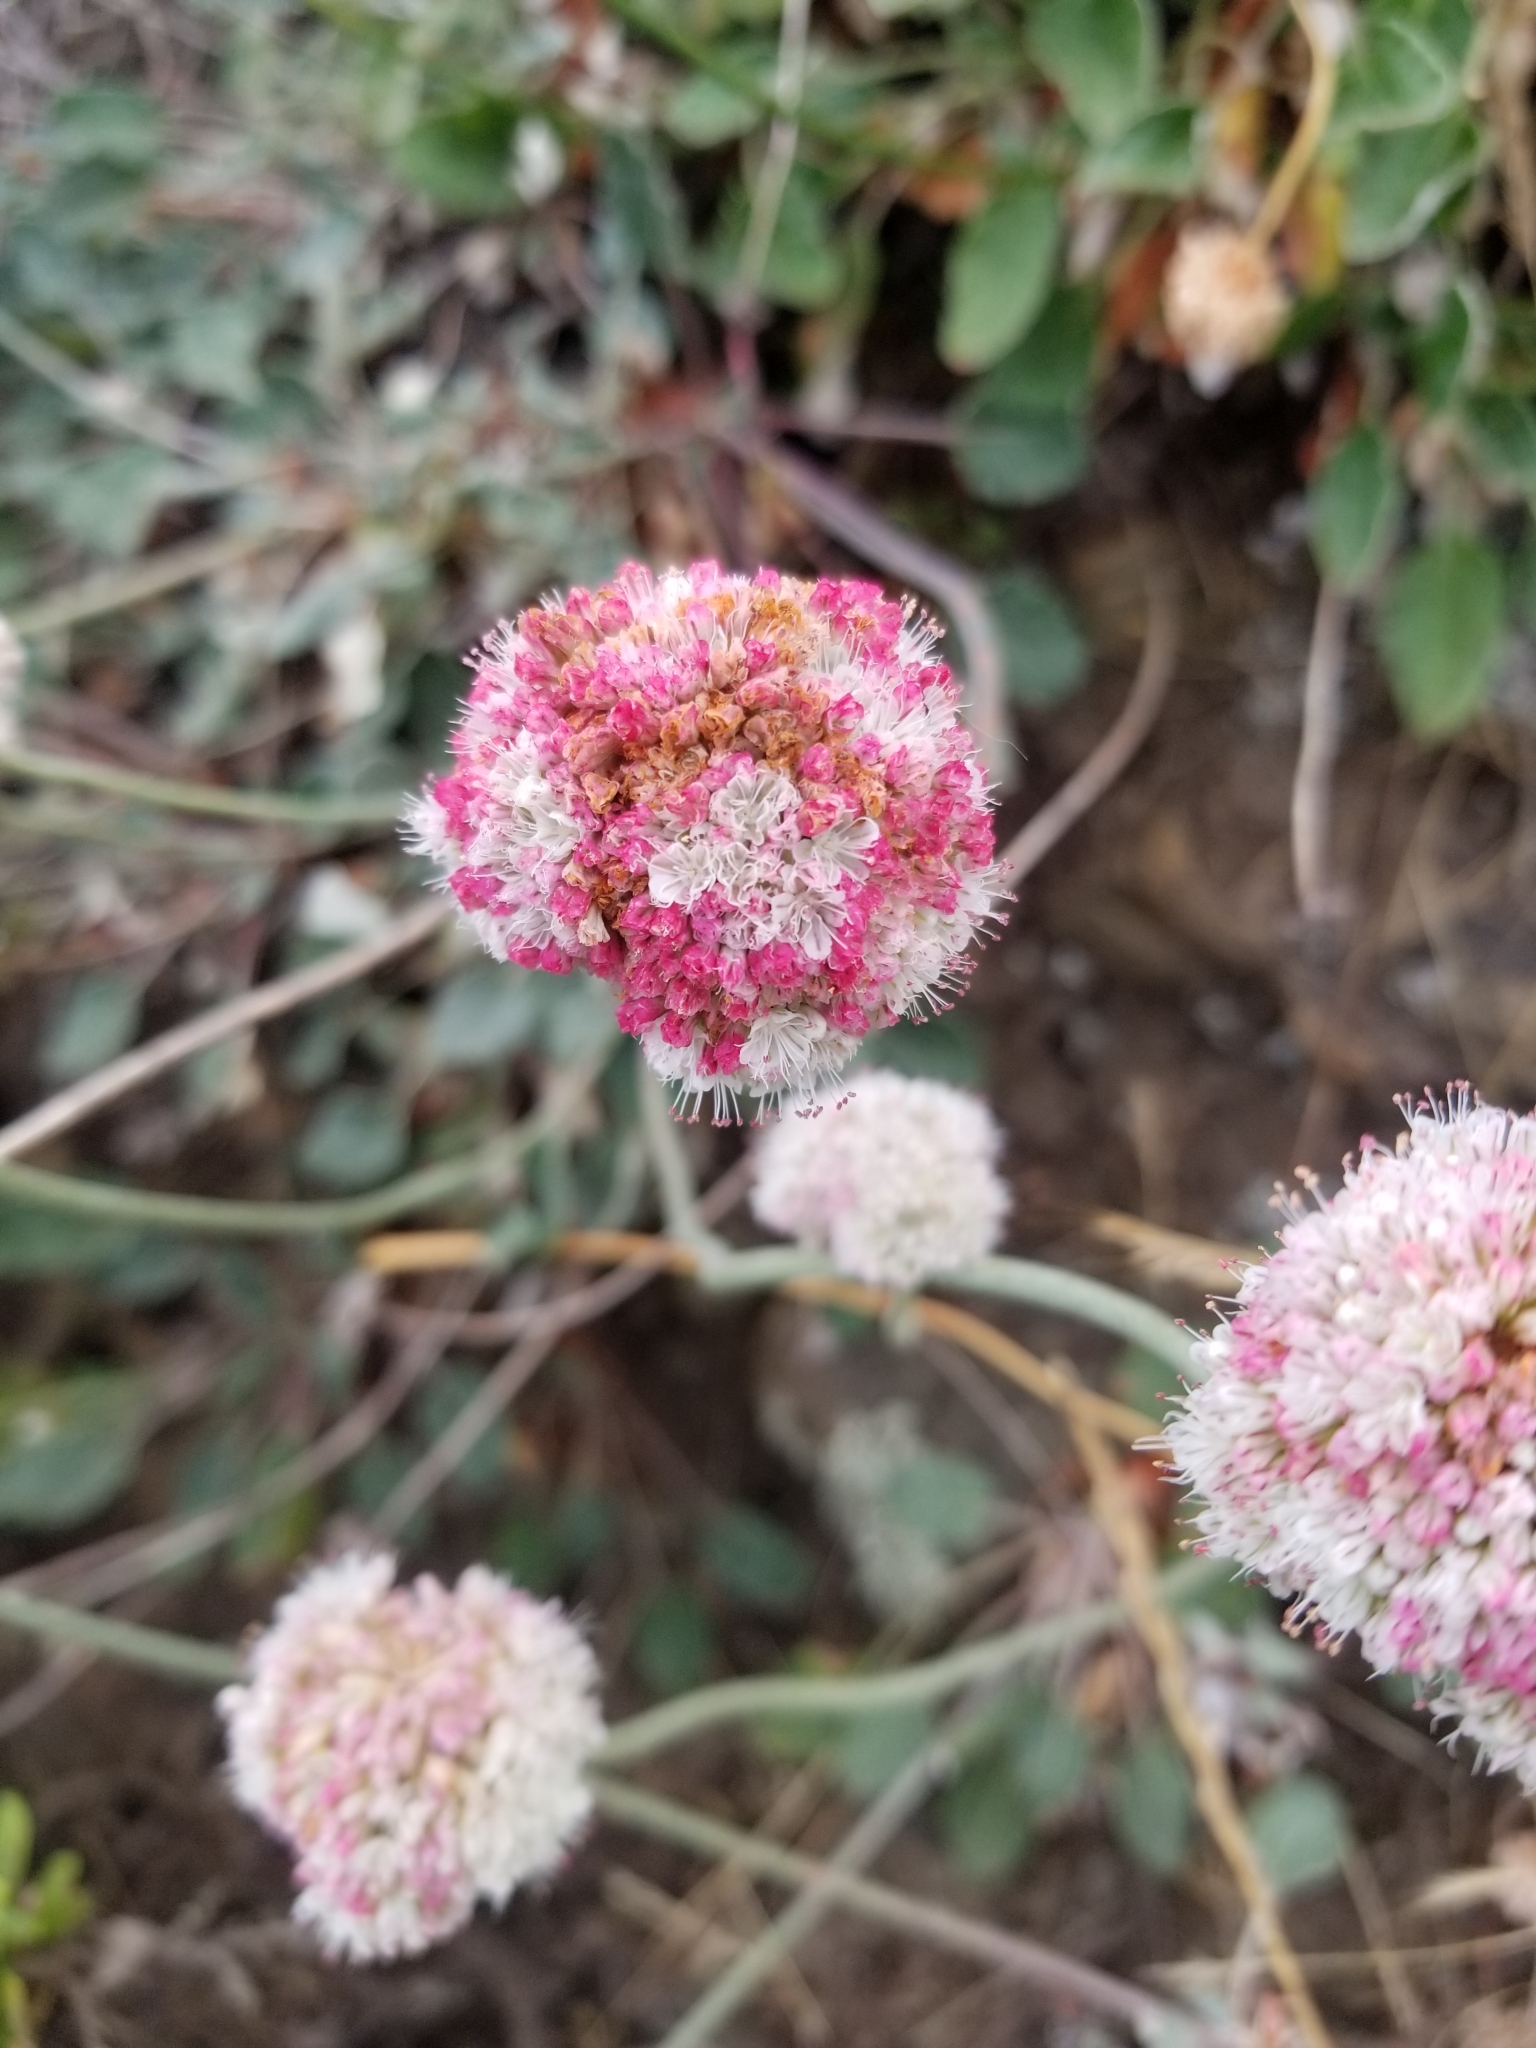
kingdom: Plantae
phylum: Tracheophyta
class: Magnoliopsida
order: Caryophyllales
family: Polygonaceae
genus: Eriogonum
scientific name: Eriogonum latifolium
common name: Seaside wild buckwheat
